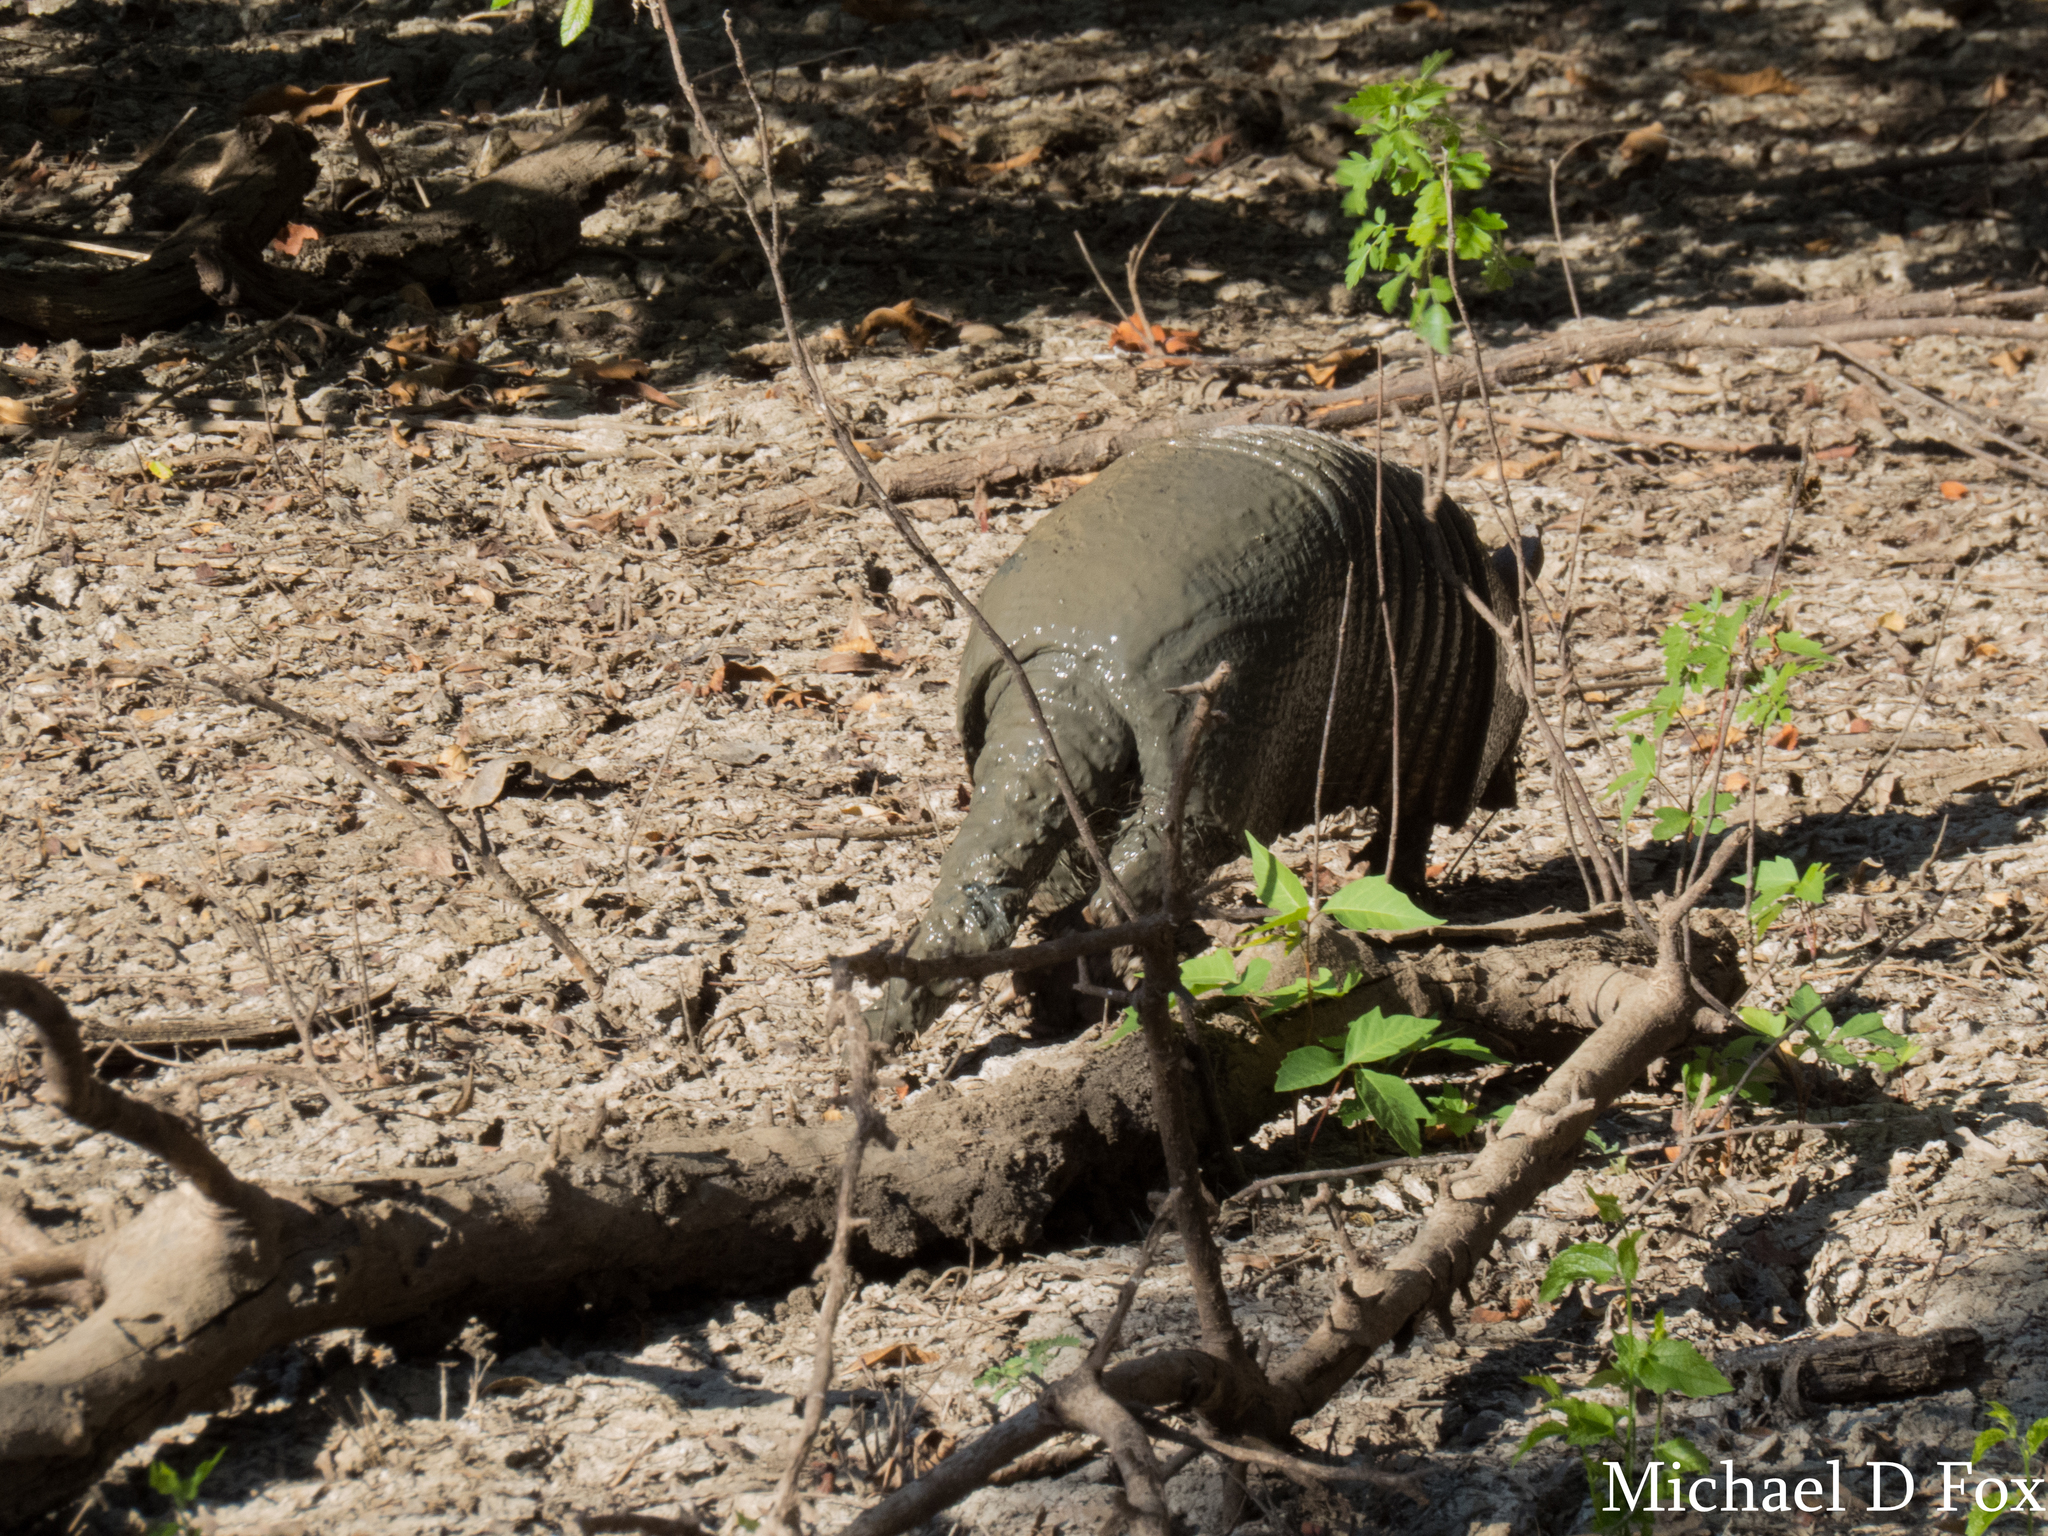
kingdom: Animalia
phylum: Chordata
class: Mammalia
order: Cingulata
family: Dasypodidae
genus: Dasypus
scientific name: Dasypus novemcinctus
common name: Nine-banded armadillo
